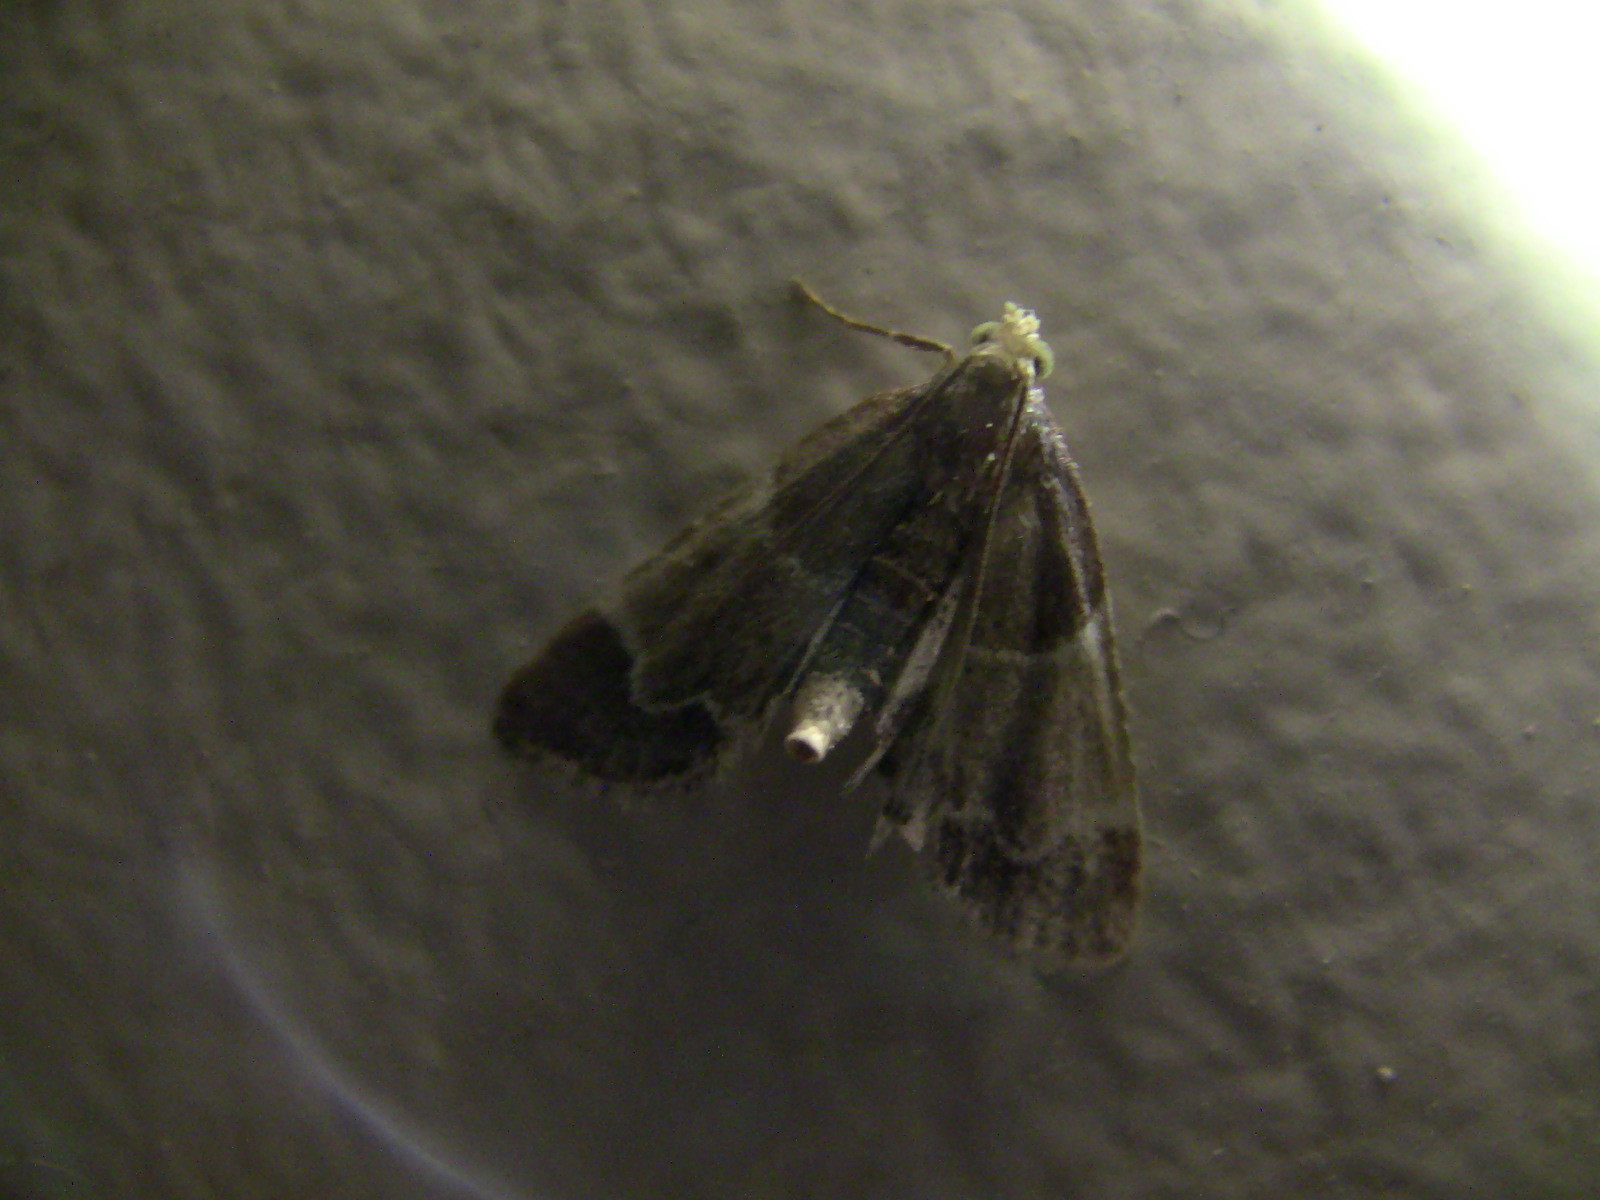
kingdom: Animalia
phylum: Arthropoda
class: Insecta
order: Lepidoptera
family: Pyralidae
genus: Pyralis
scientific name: Pyralis farinalis
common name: Meal moth
